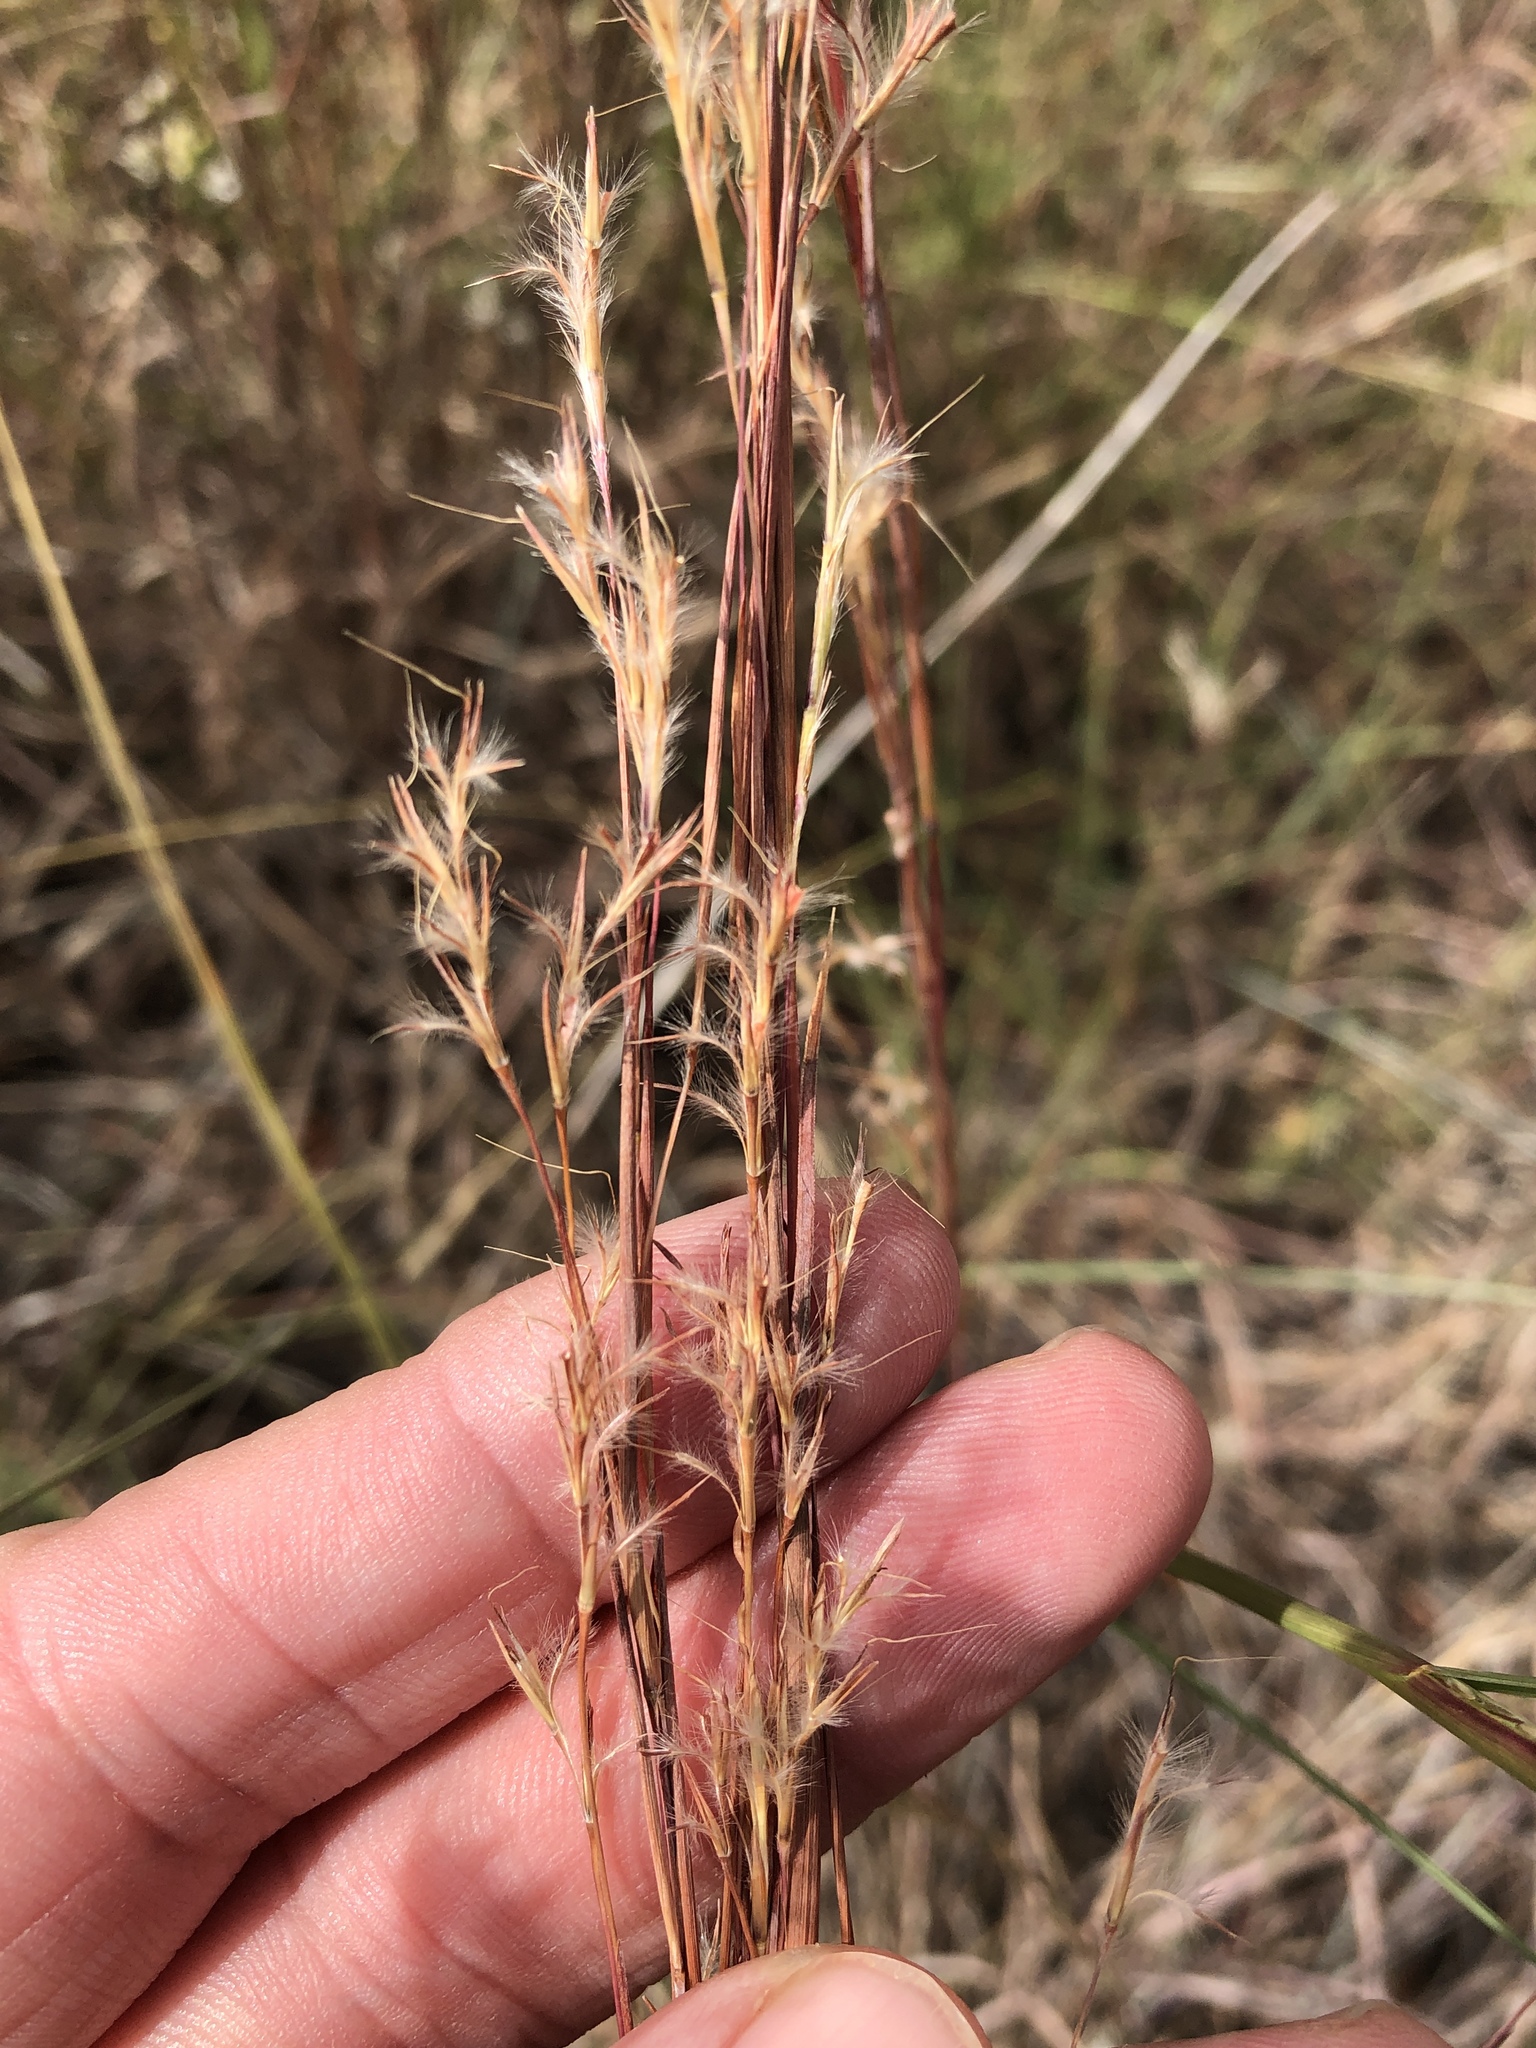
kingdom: Plantae
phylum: Tracheophyta
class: Liliopsida
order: Poales
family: Poaceae
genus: Schizachyrium
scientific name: Schizachyrium scoparium
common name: Little bluestem
